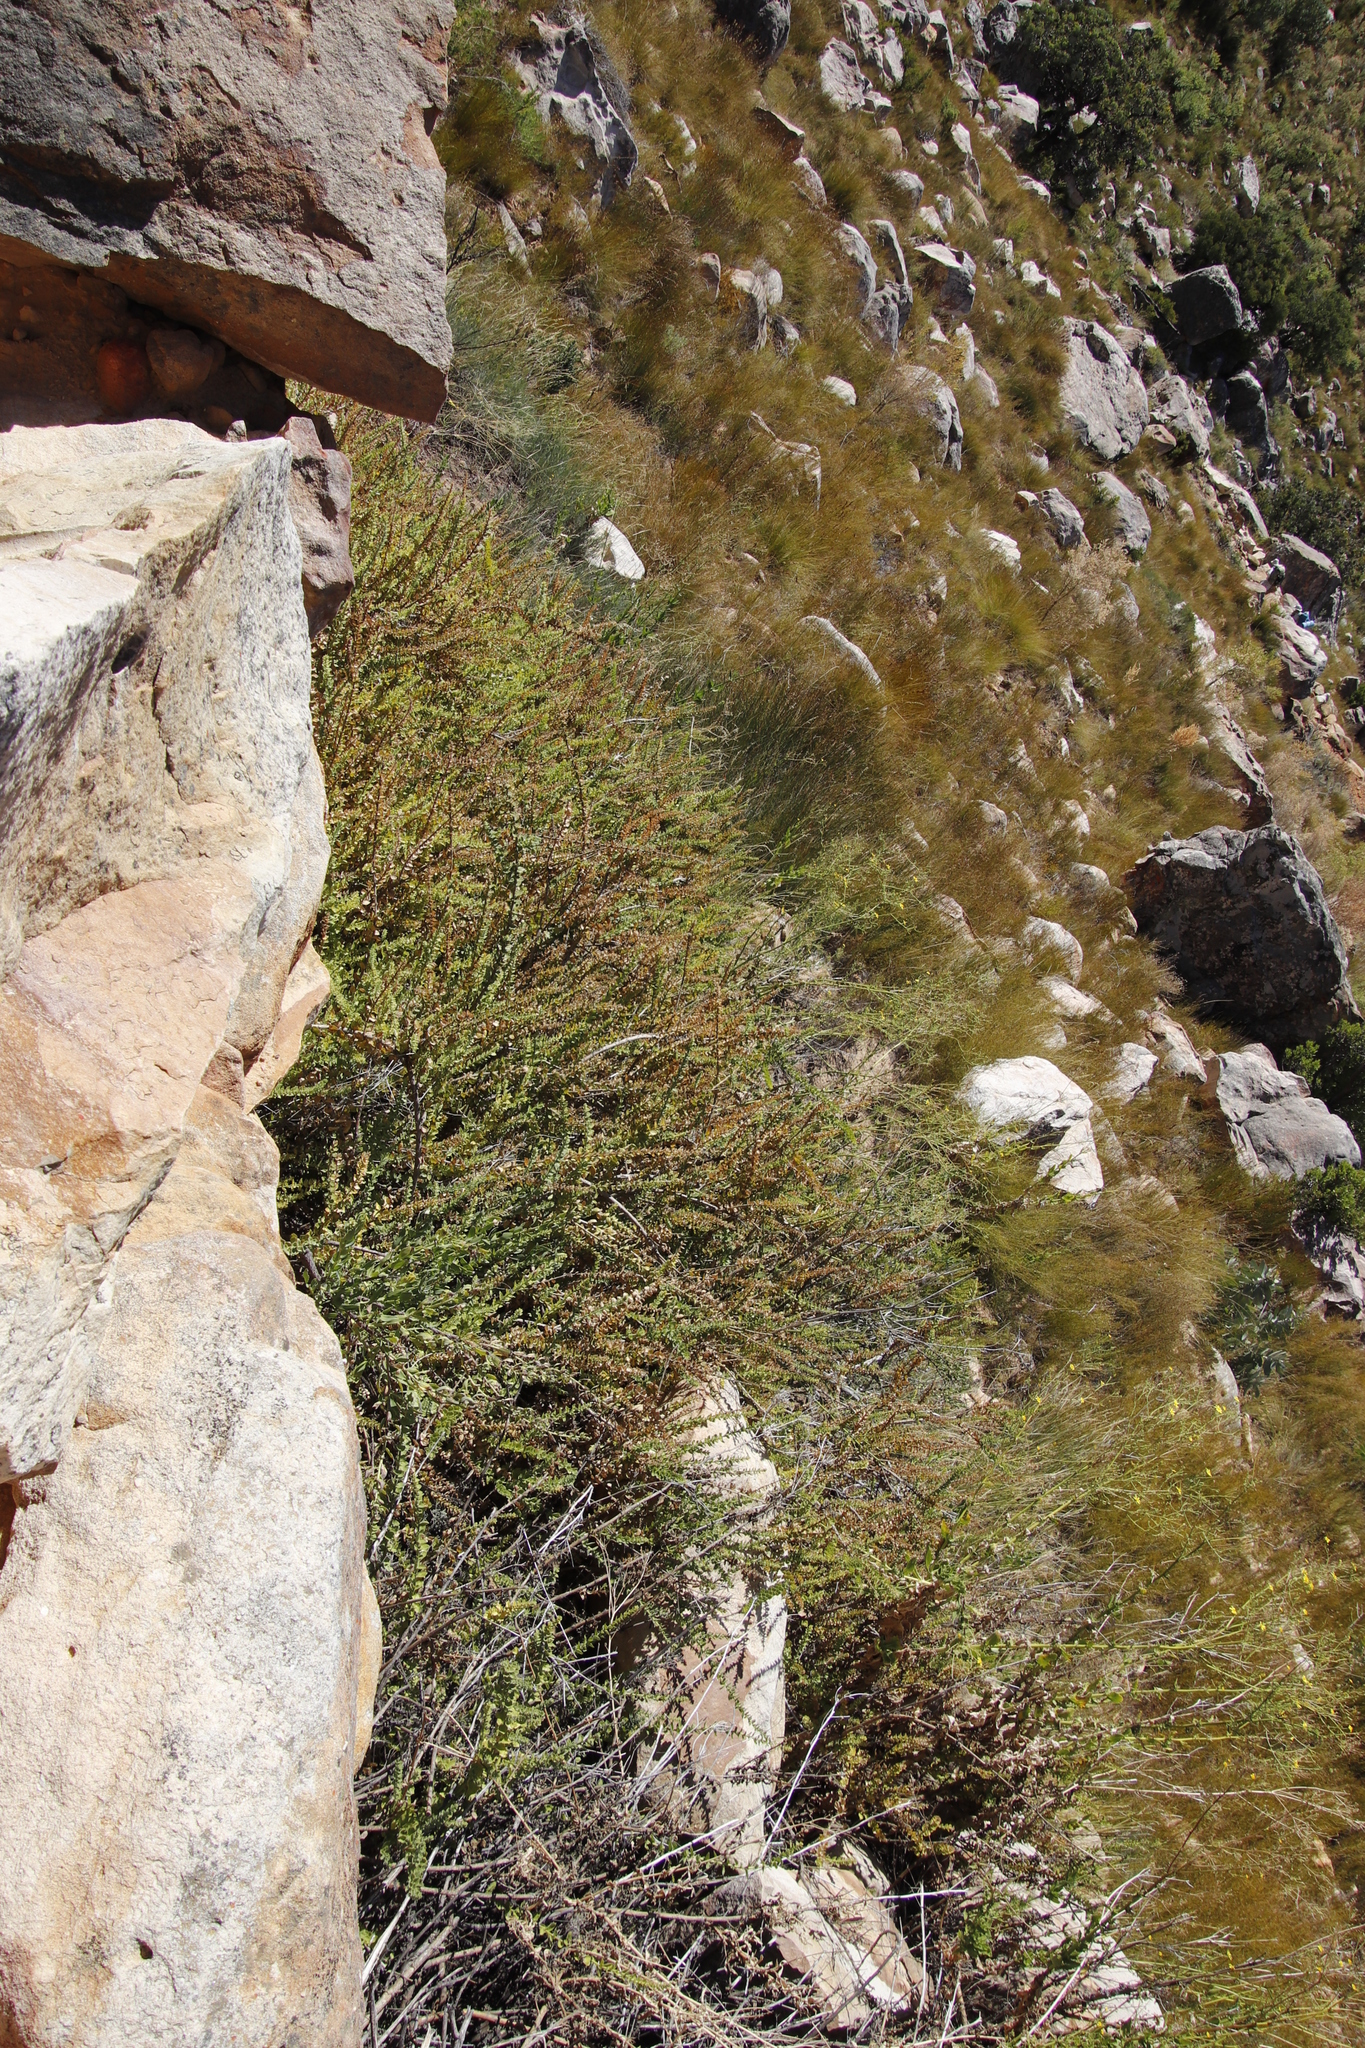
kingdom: Plantae
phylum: Tracheophyta
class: Magnoliopsida
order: Lamiales
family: Scrophulariaceae
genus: Oftia
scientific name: Oftia africana
